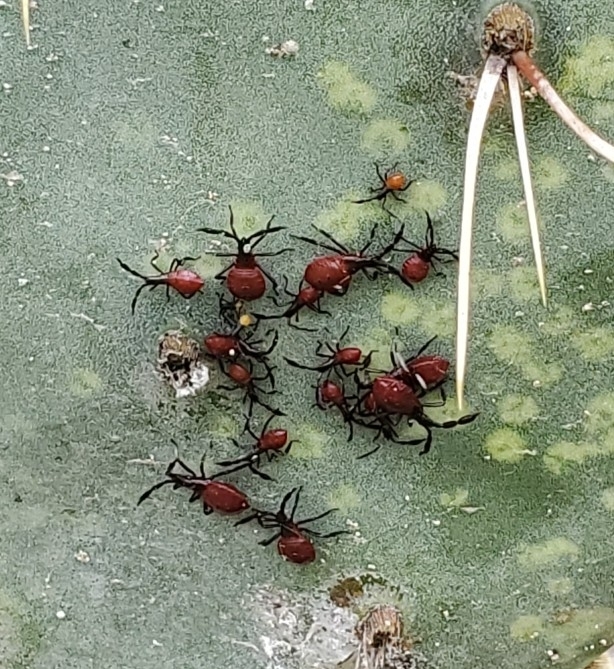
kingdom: Animalia
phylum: Arthropoda
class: Insecta
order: Hemiptera
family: Coreidae
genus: Chelinidea
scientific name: Chelinidea vittiger
